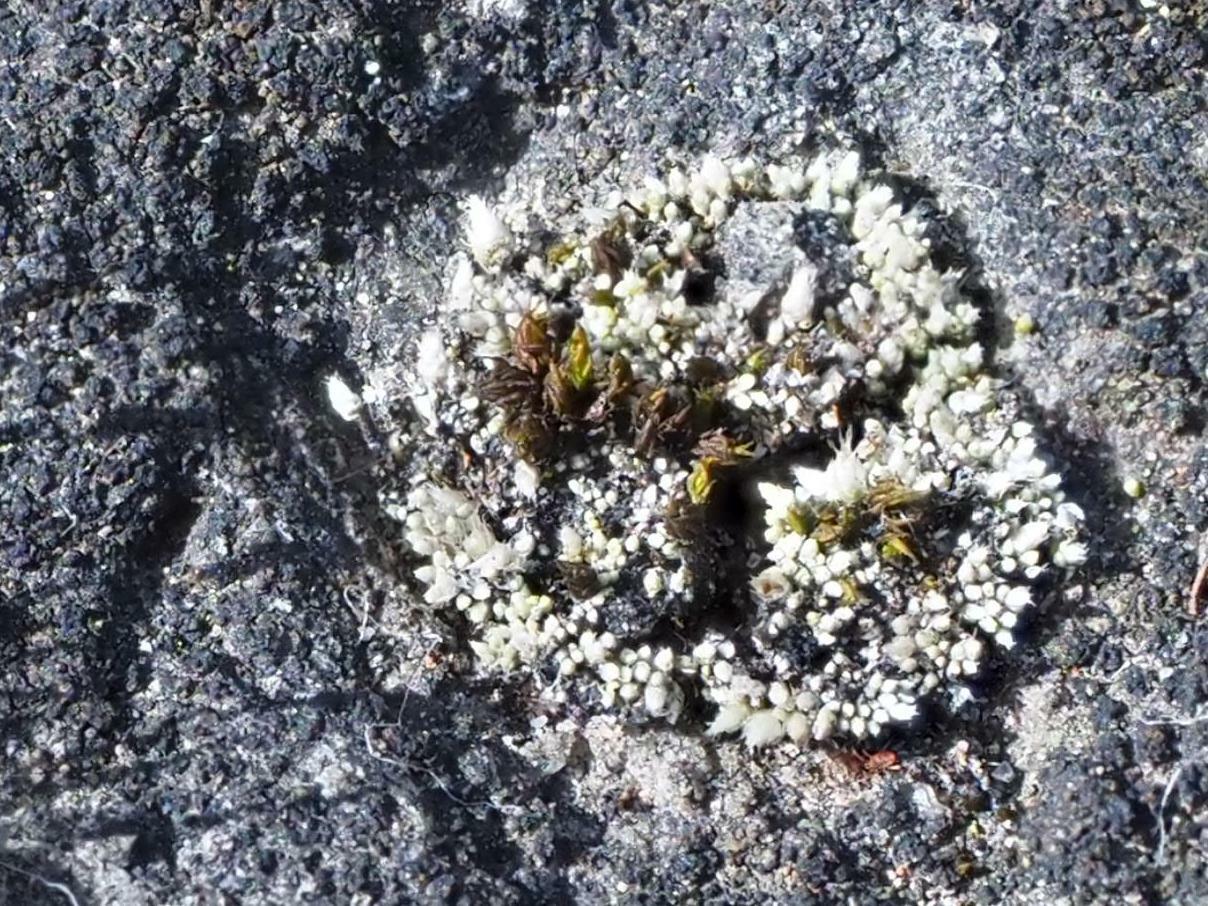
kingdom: Plantae
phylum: Bryophyta
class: Bryopsida
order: Bryales
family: Bryaceae
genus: Bryum
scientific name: Bryum argenteum
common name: Silver-moss
